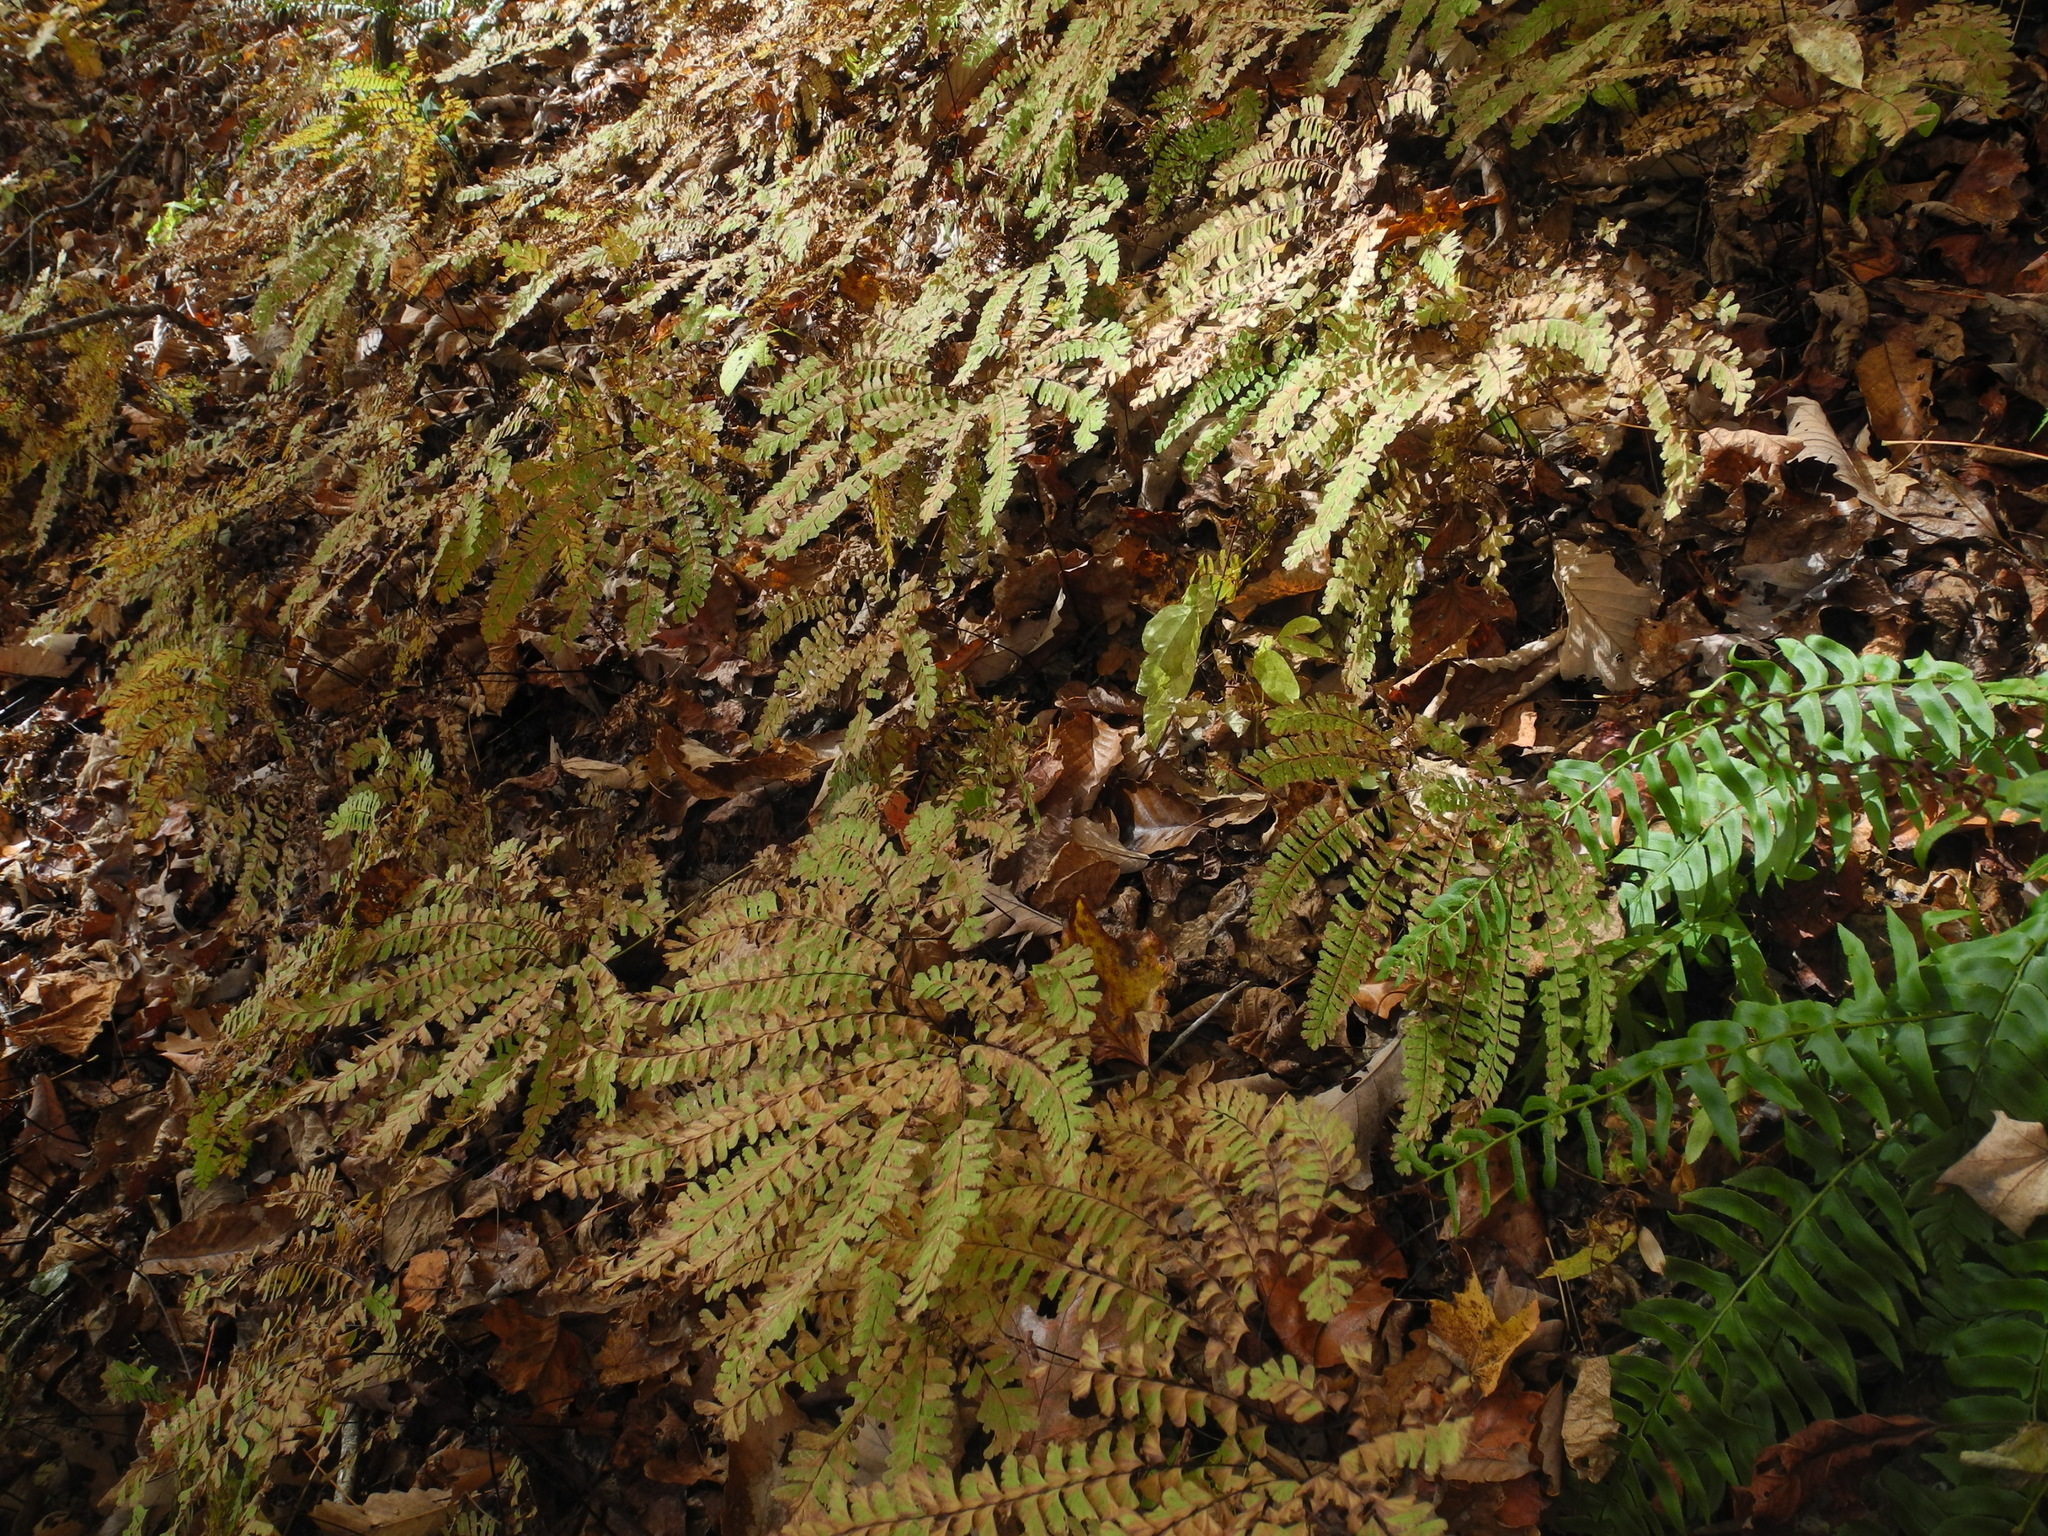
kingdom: Plantae
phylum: Tracheophyta
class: Polypodiopsida
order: Polypodiales
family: Pteridaceae
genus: Adiantum
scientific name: Adiantum pedatum
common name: Five-finger fern
